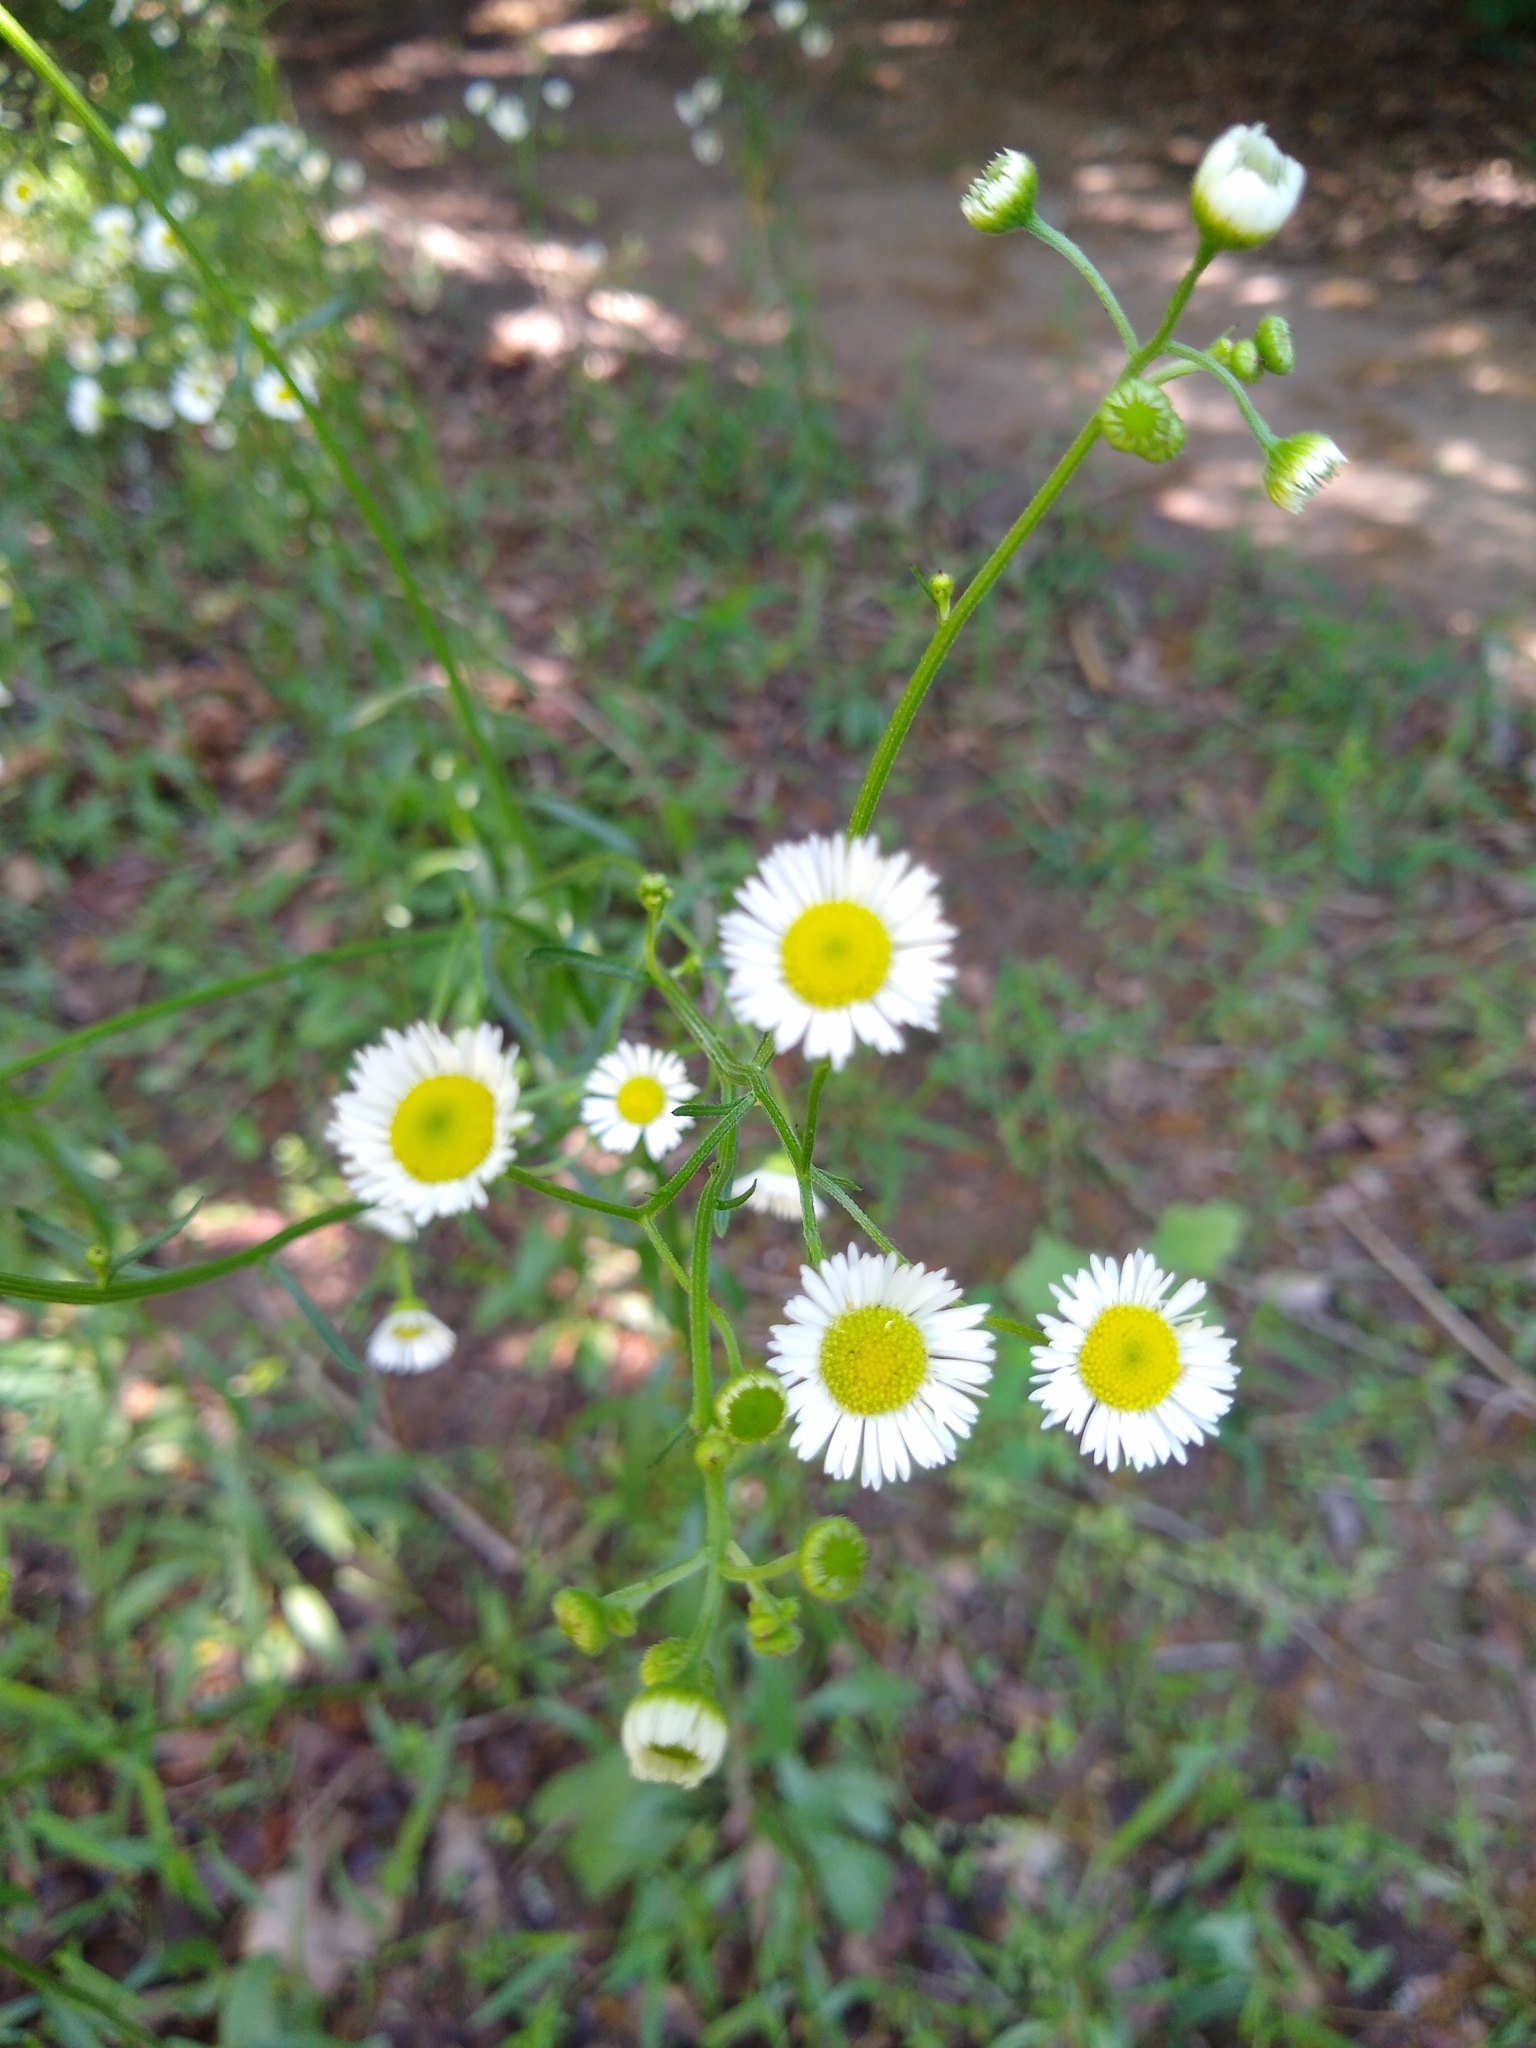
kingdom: Plantae
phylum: Tracheophyta
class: Magnoliopsida
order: Asterales
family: Asteraceae
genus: Erigeron
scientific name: Erigeron strigosus
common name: Common eastern fleabane
